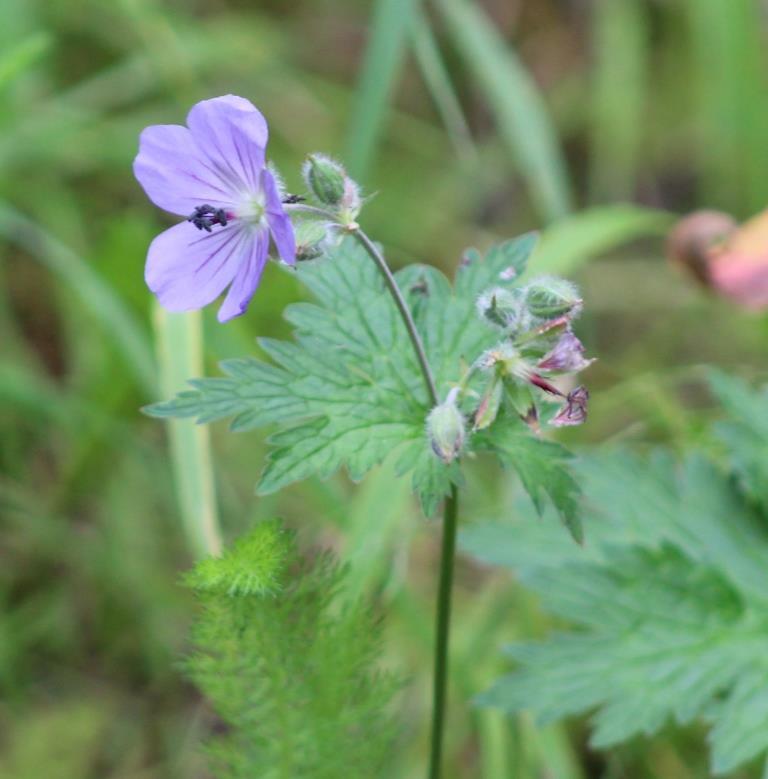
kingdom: Plantae
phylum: Tracheophyta
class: Magnoliopsida
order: Geraniales
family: Geraniaceae
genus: Geranium
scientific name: Geranium erianthum
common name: Northern crane's-bill
